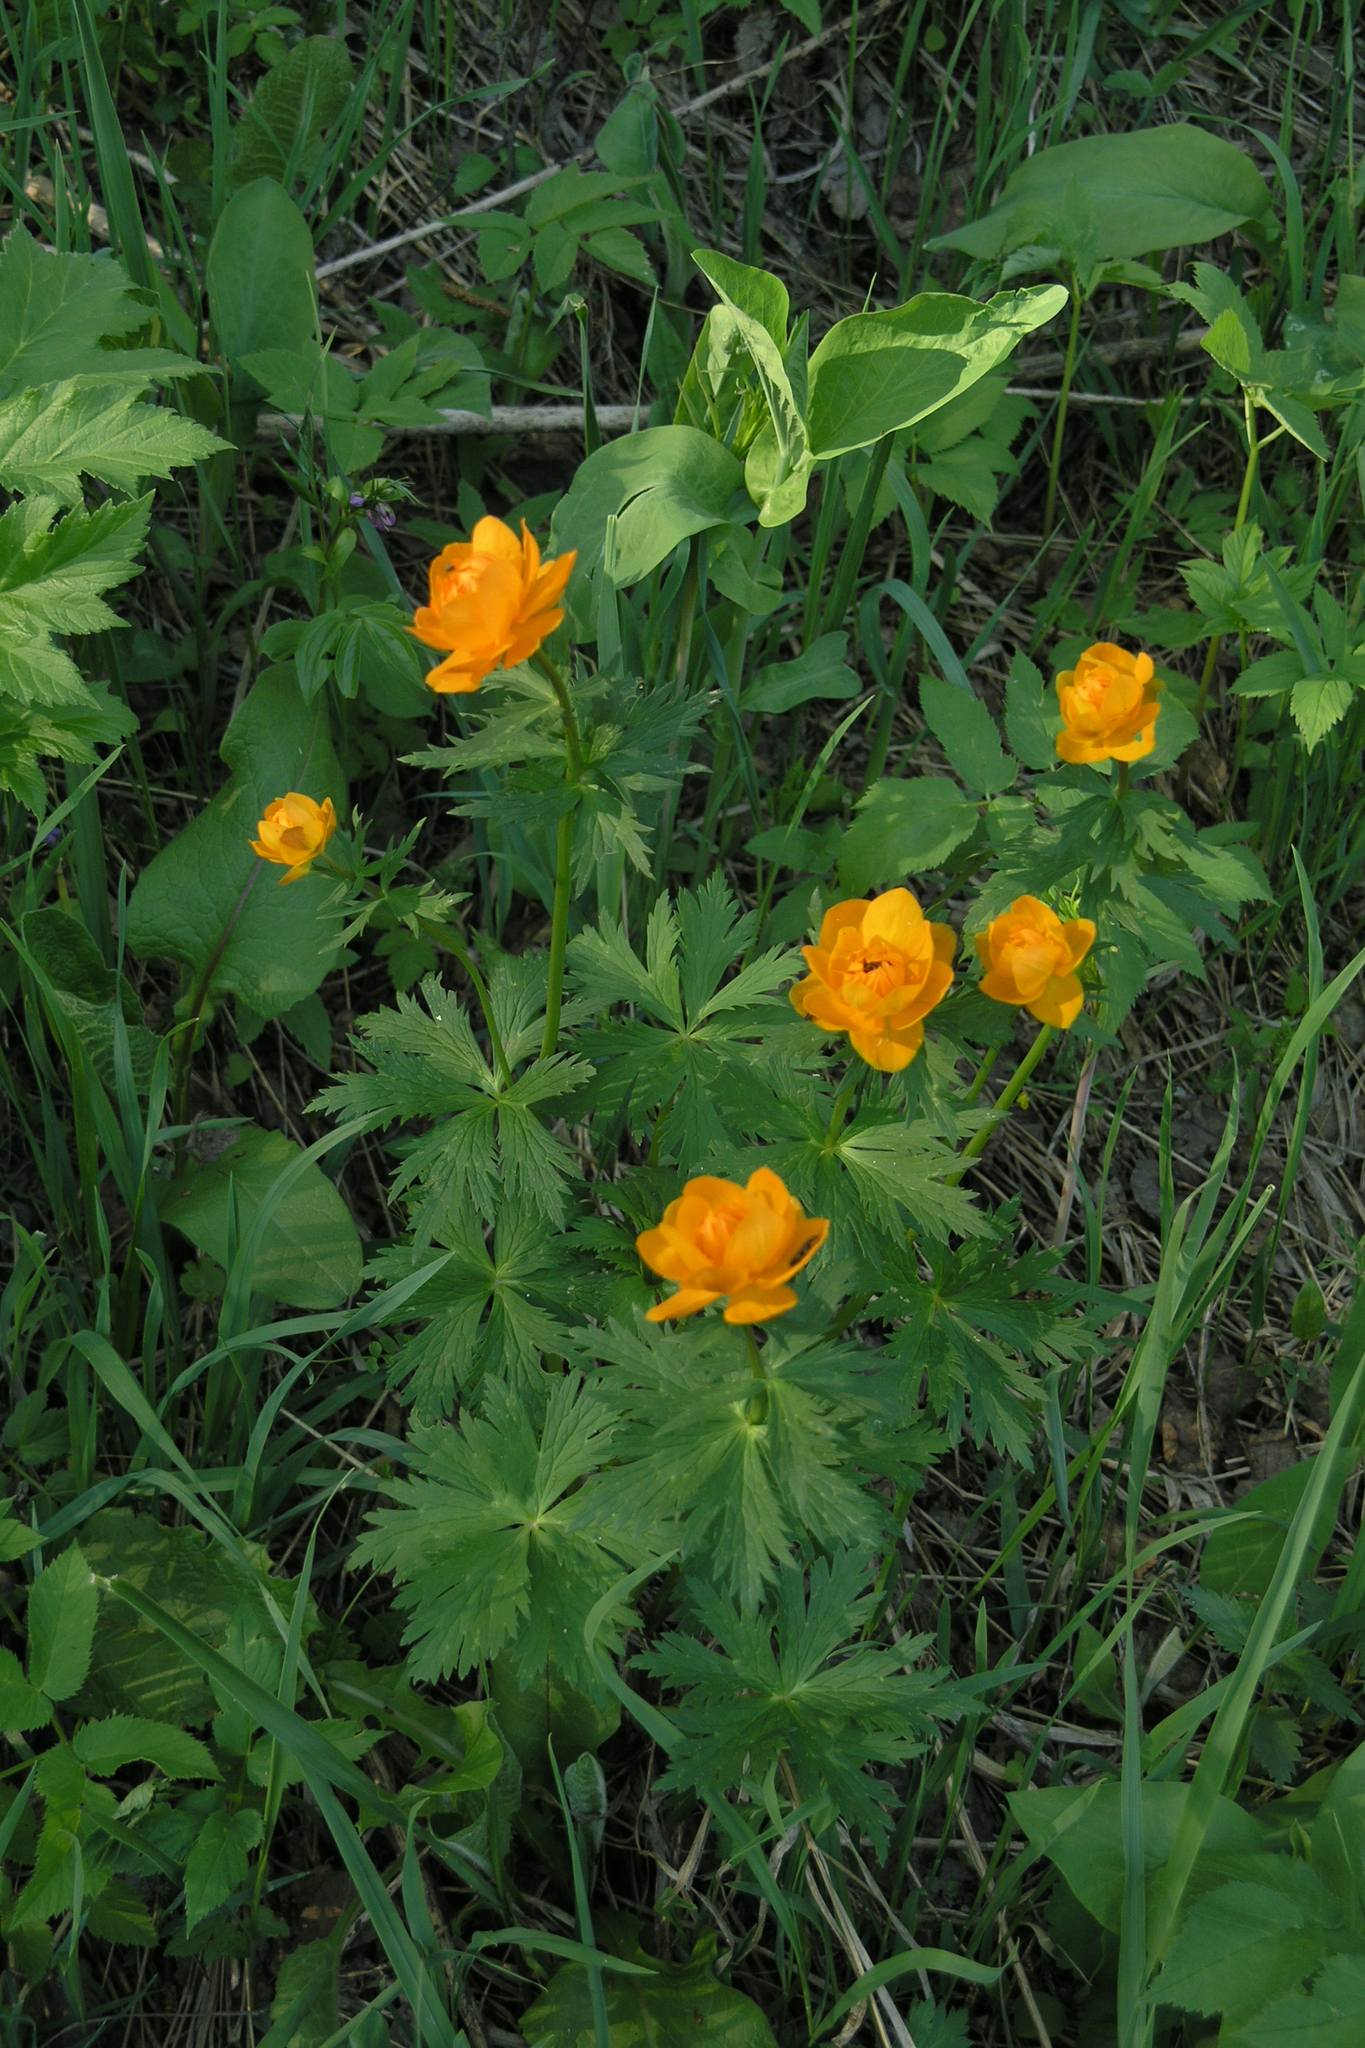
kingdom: Plantae
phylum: Tracheophyta
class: Magnoliopsida
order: Ranunculales
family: Ranunculaceae
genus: Trollius
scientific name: Trollius asiaticus
